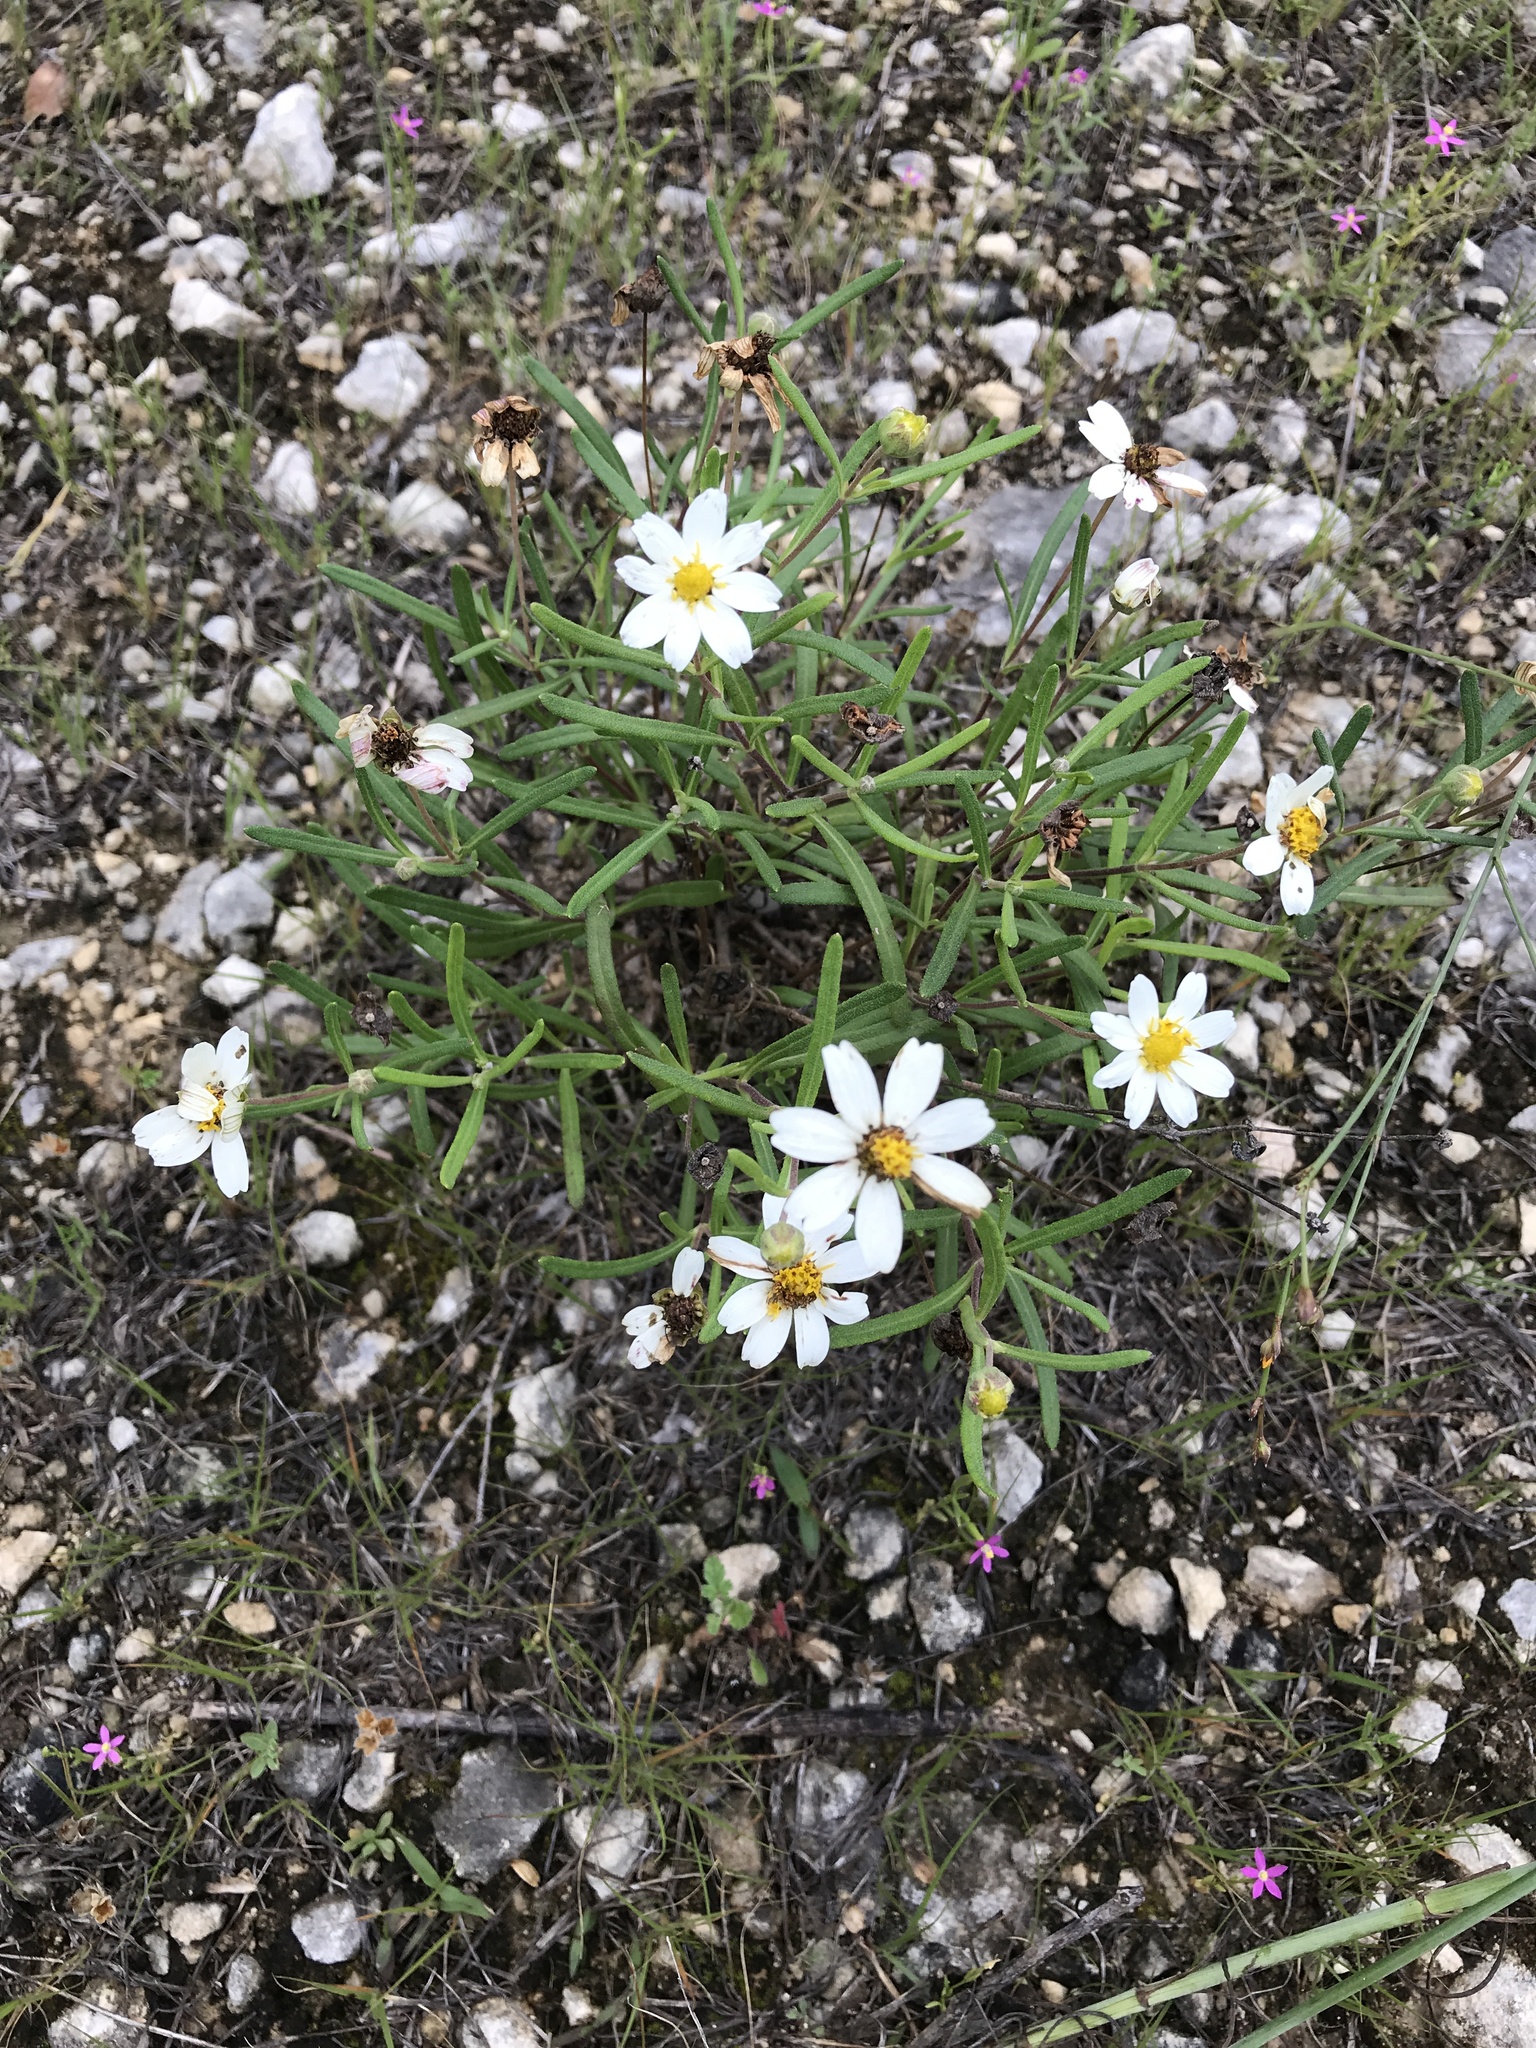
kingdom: Plantae
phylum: Tracheophyta
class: Magnoliopsida
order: Asterales
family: Asteraceae
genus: Melampodium
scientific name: Melampodium leucanthum
